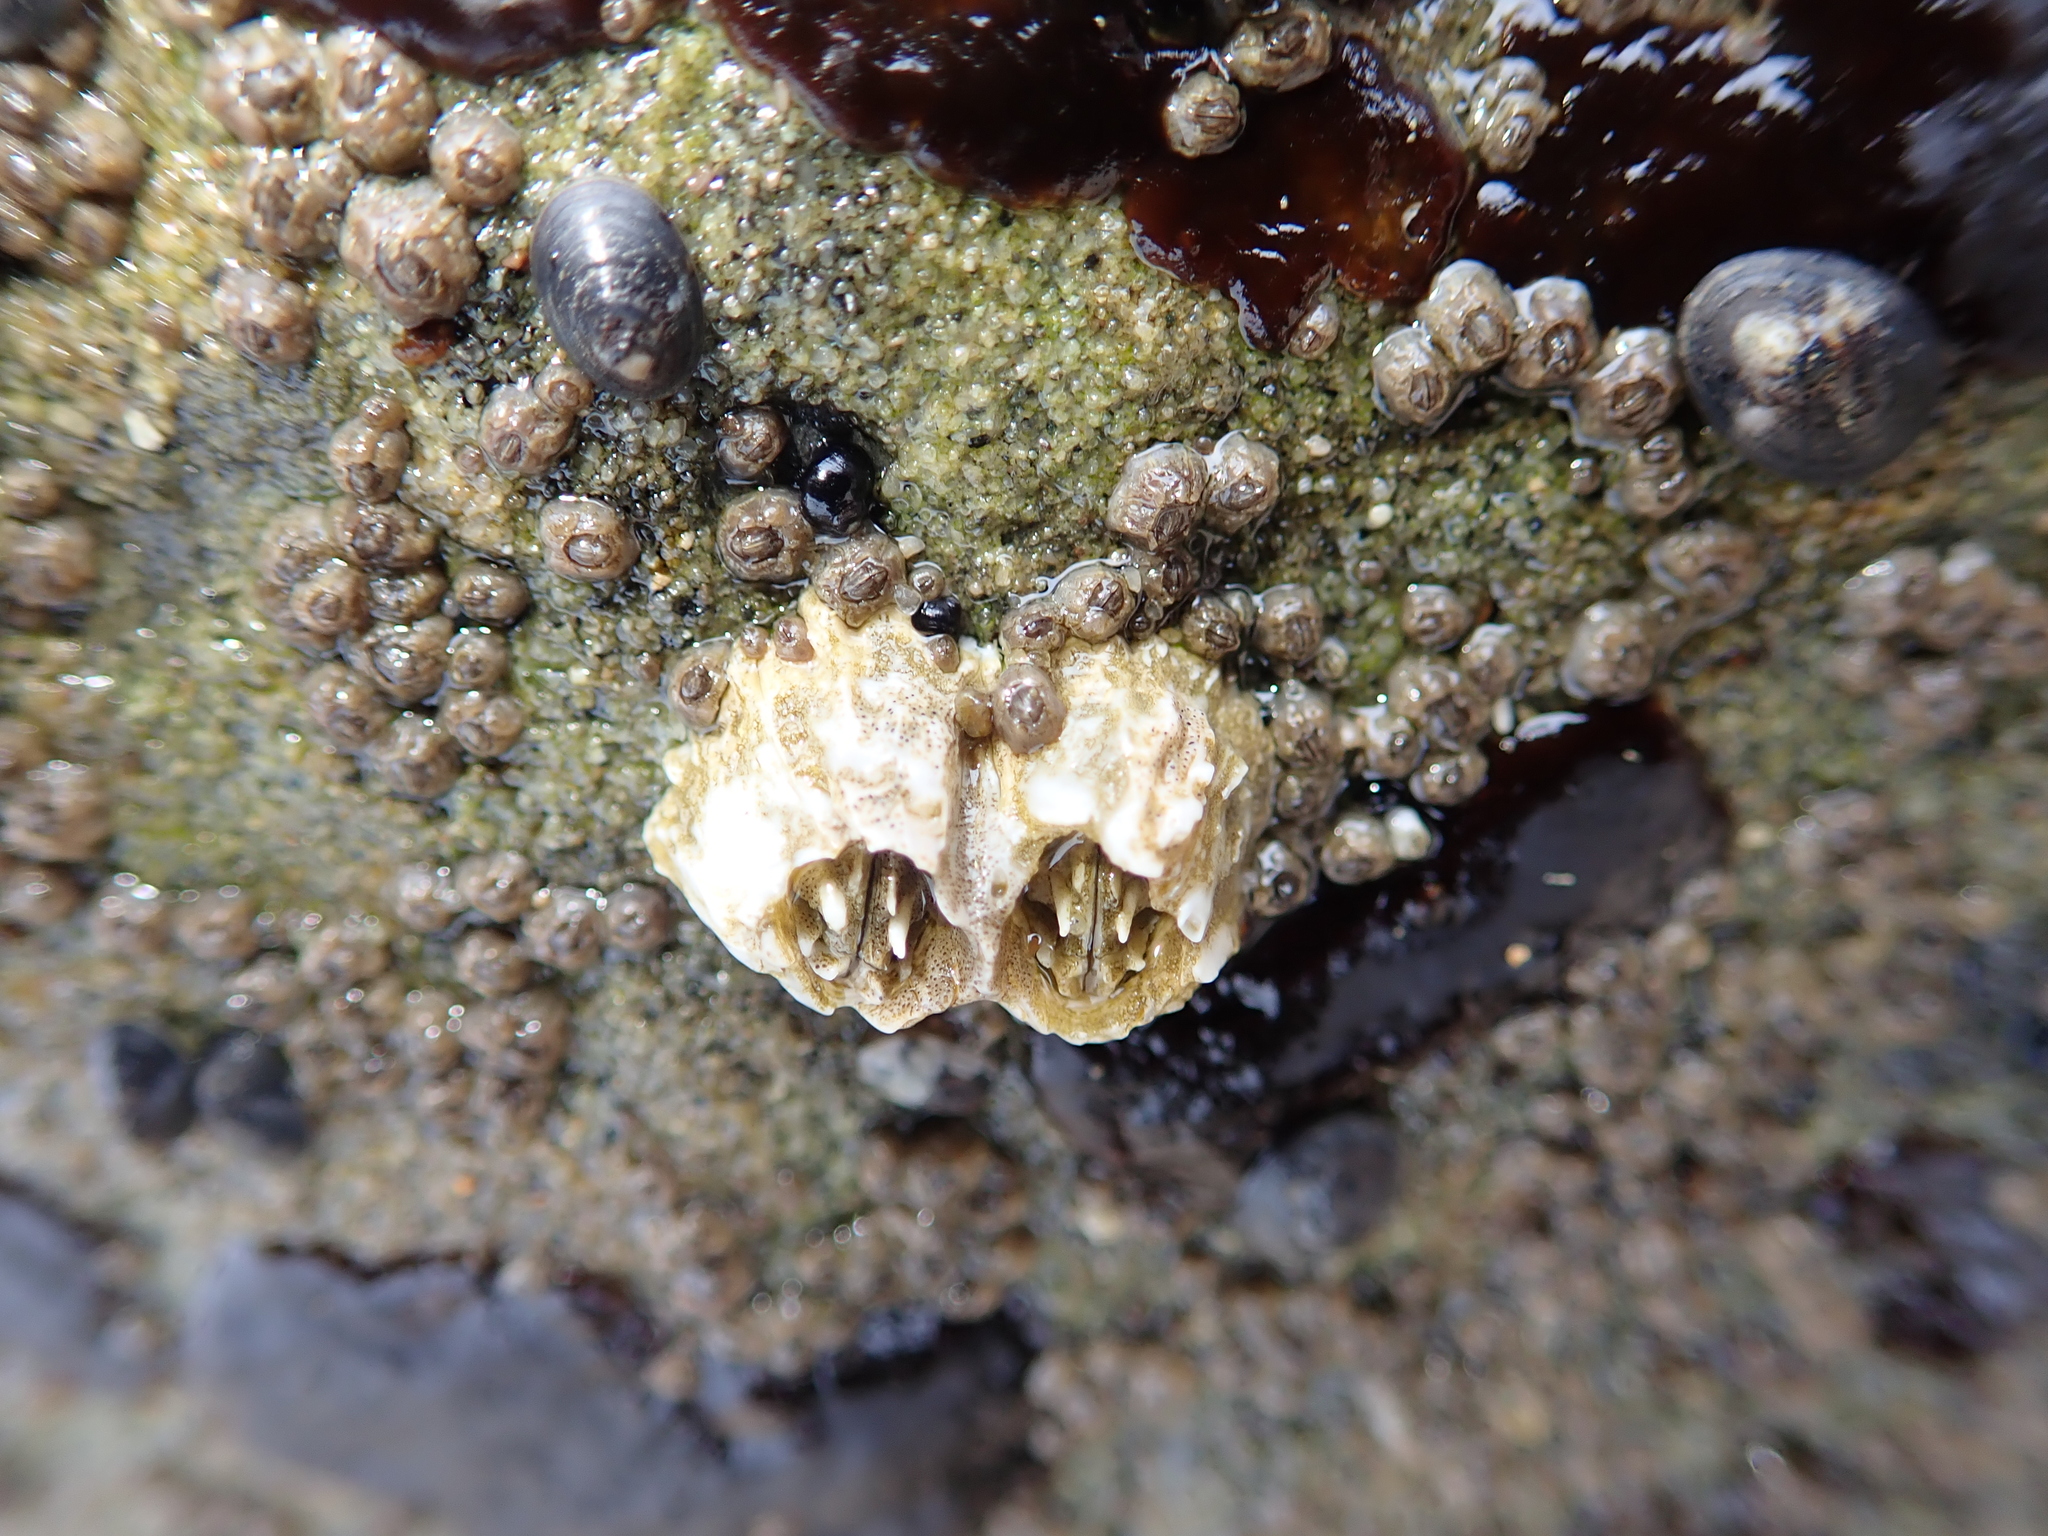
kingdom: Animalia
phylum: Arthropoda
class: Maxillopoda
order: Sessilia
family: Balanidae
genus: Balanus
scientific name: Balanus glandula
